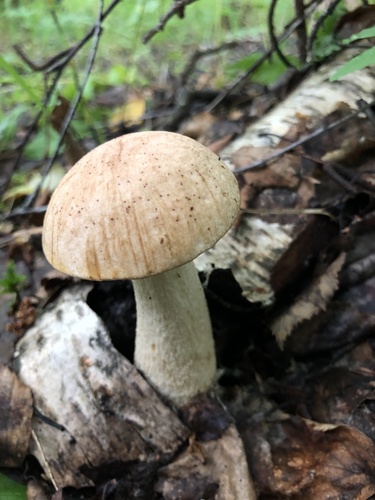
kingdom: Fungi
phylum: Basidiomycota
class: Agaricomycetes
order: Boletales
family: Boletaceae
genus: Leccinum
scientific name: Leccinum scabrum
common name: Blushing bolete
